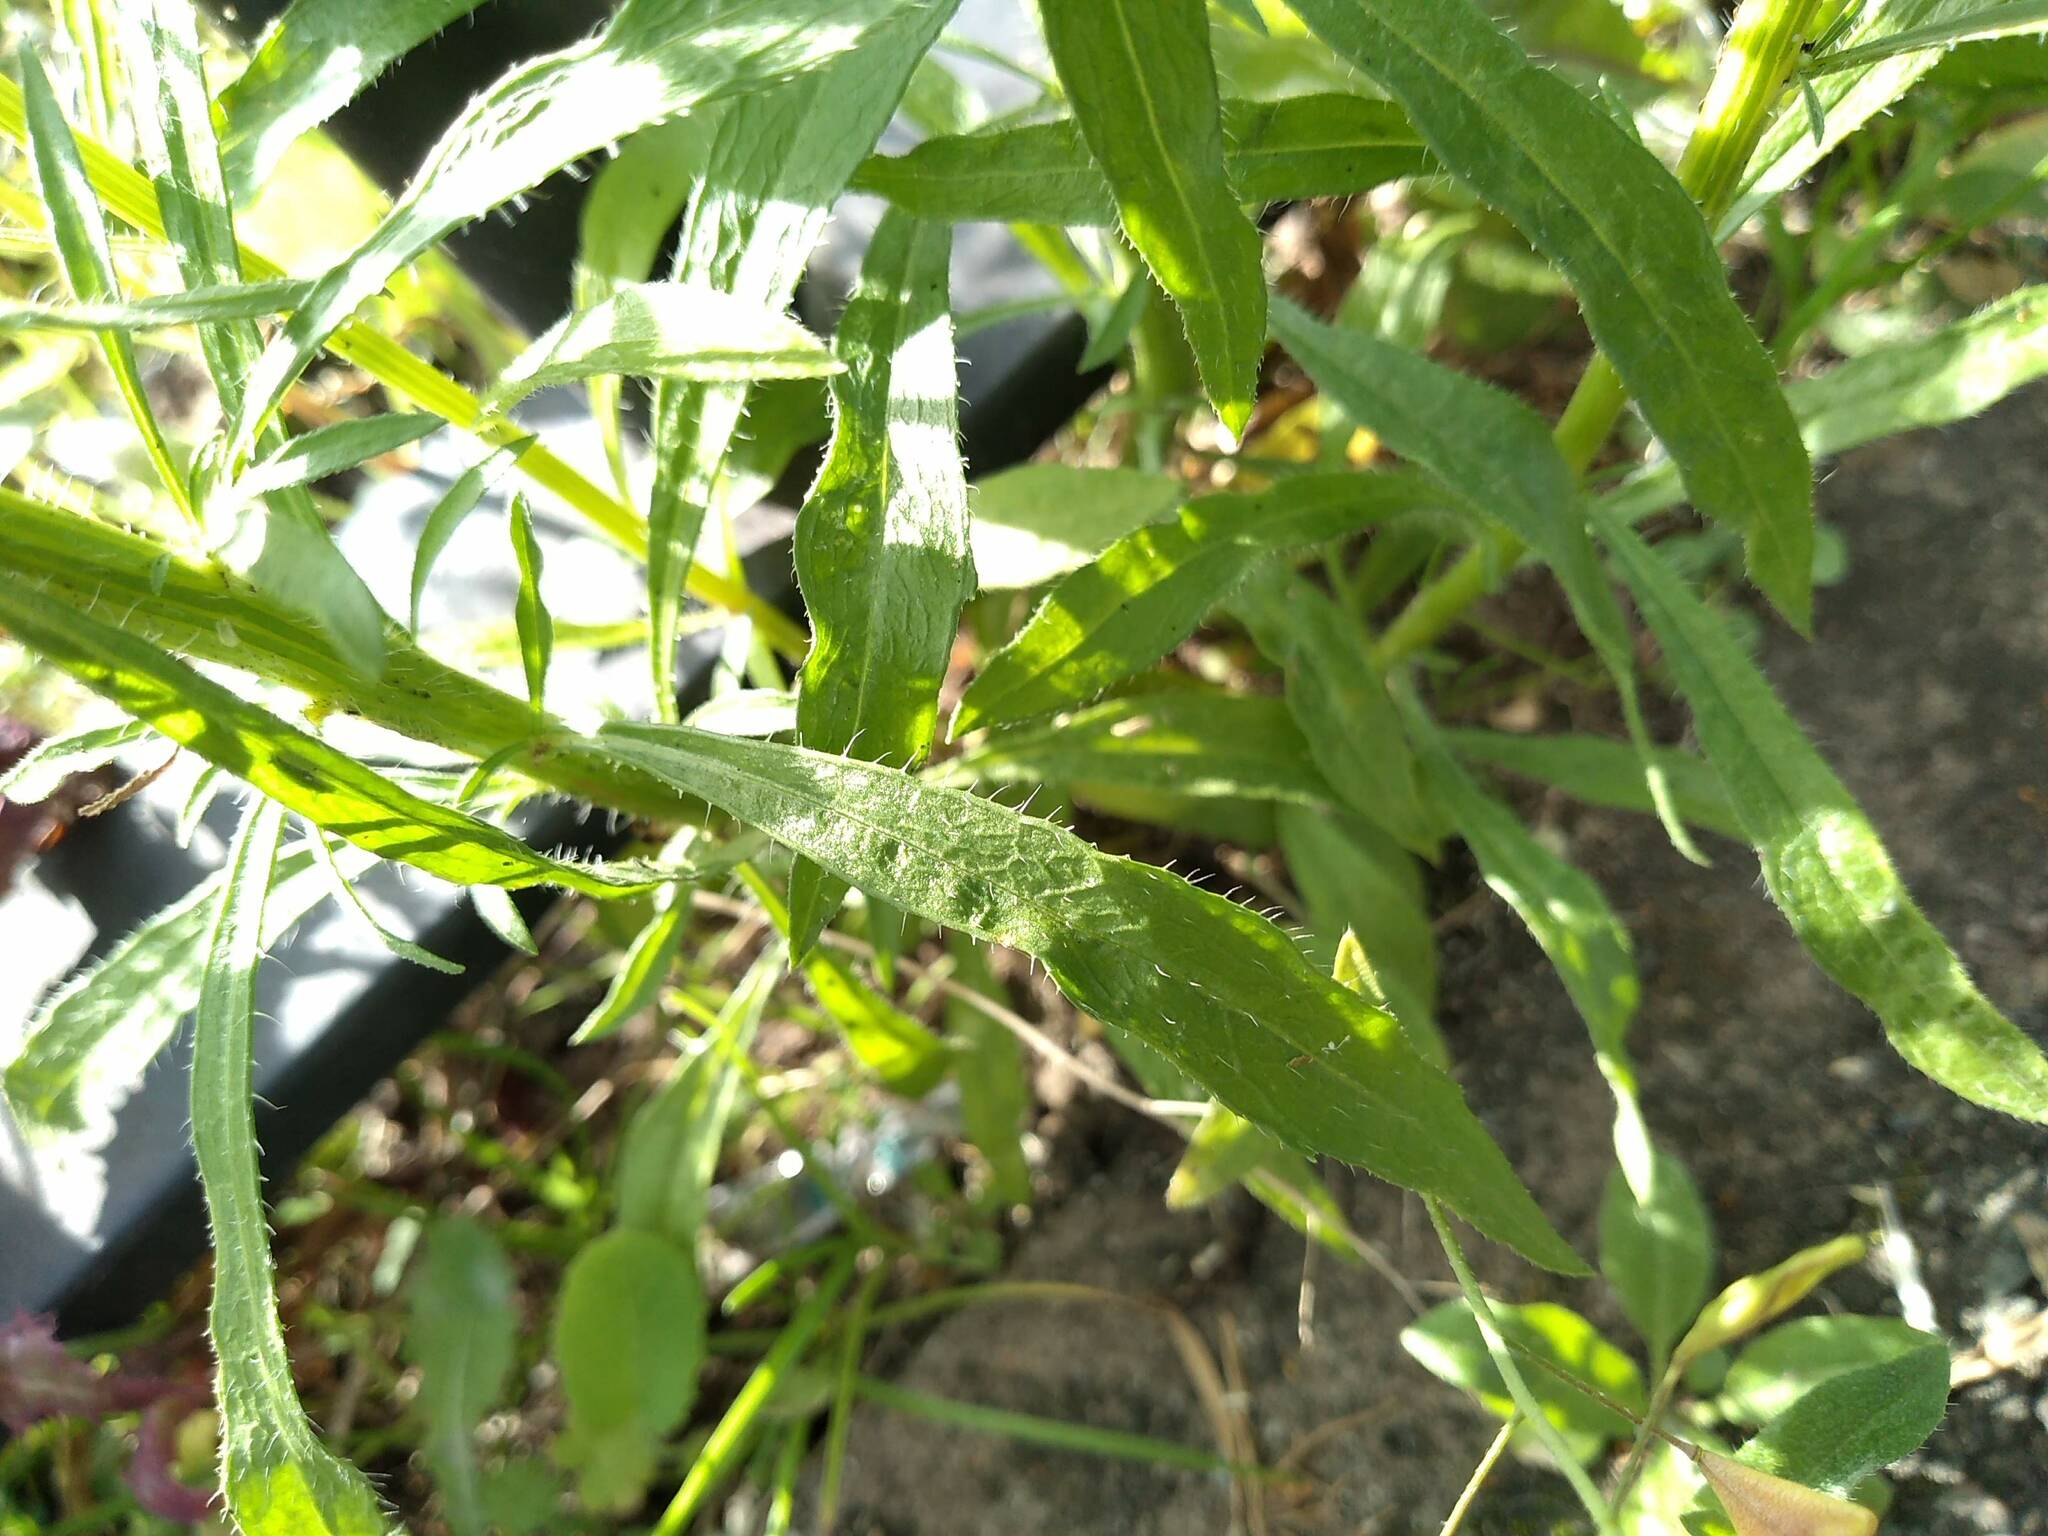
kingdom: Plantae
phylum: Tracheophyta
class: Magnoliopsida
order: Asterales
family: Asteraceae
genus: Erigeron
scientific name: Erigeron canadensis
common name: Canadian fleabane
